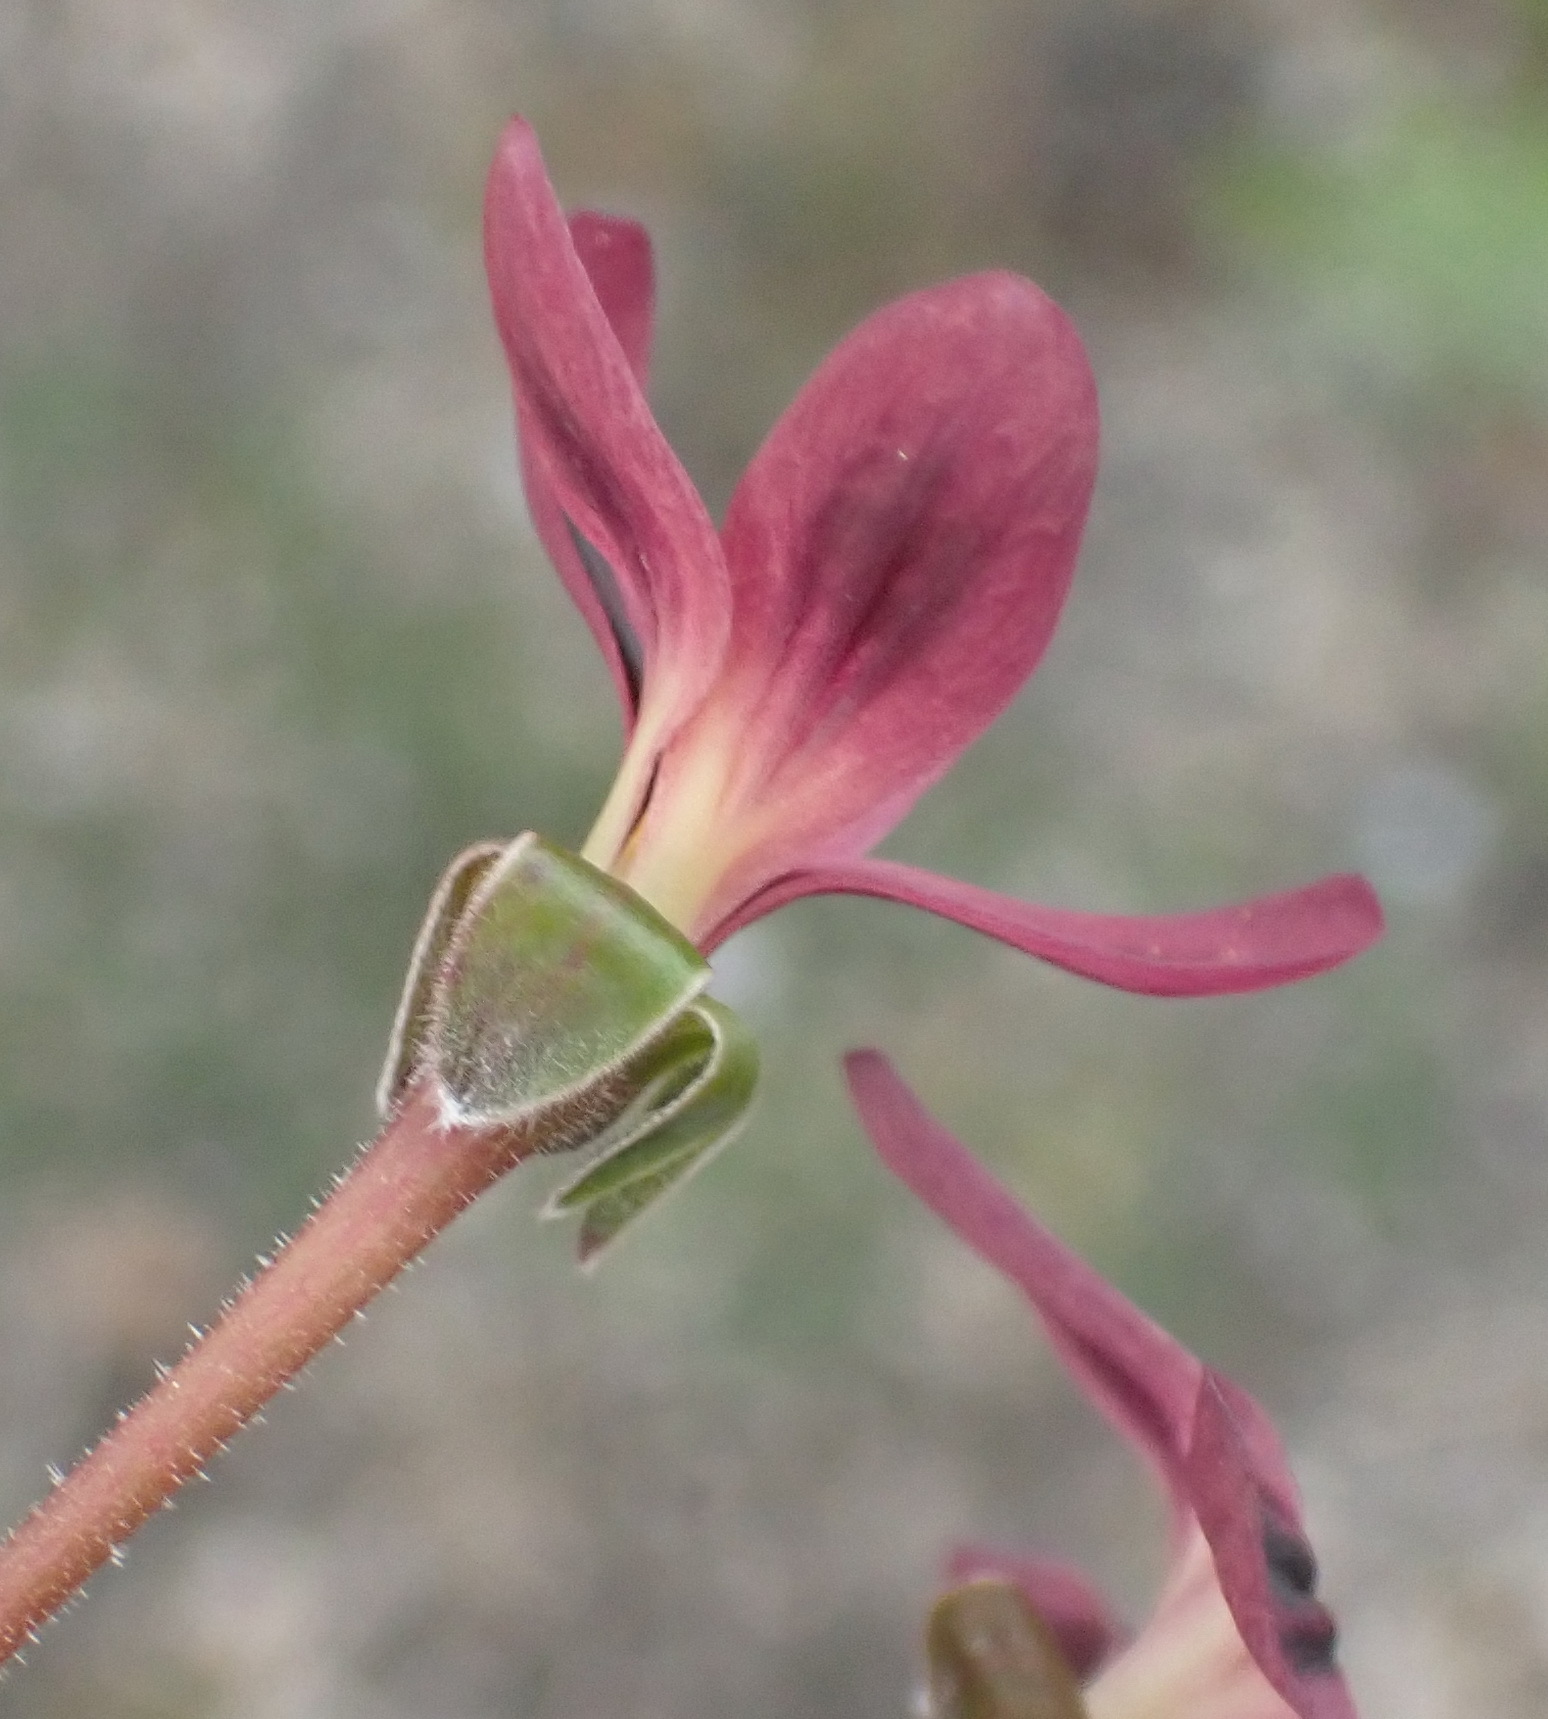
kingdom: Plantae
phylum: Tracheophyta
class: Magnoliopsida
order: Geraniales
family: Geraniaceae
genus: Pelargonium
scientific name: Pelargonium triste
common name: Night-scent pelargonium
